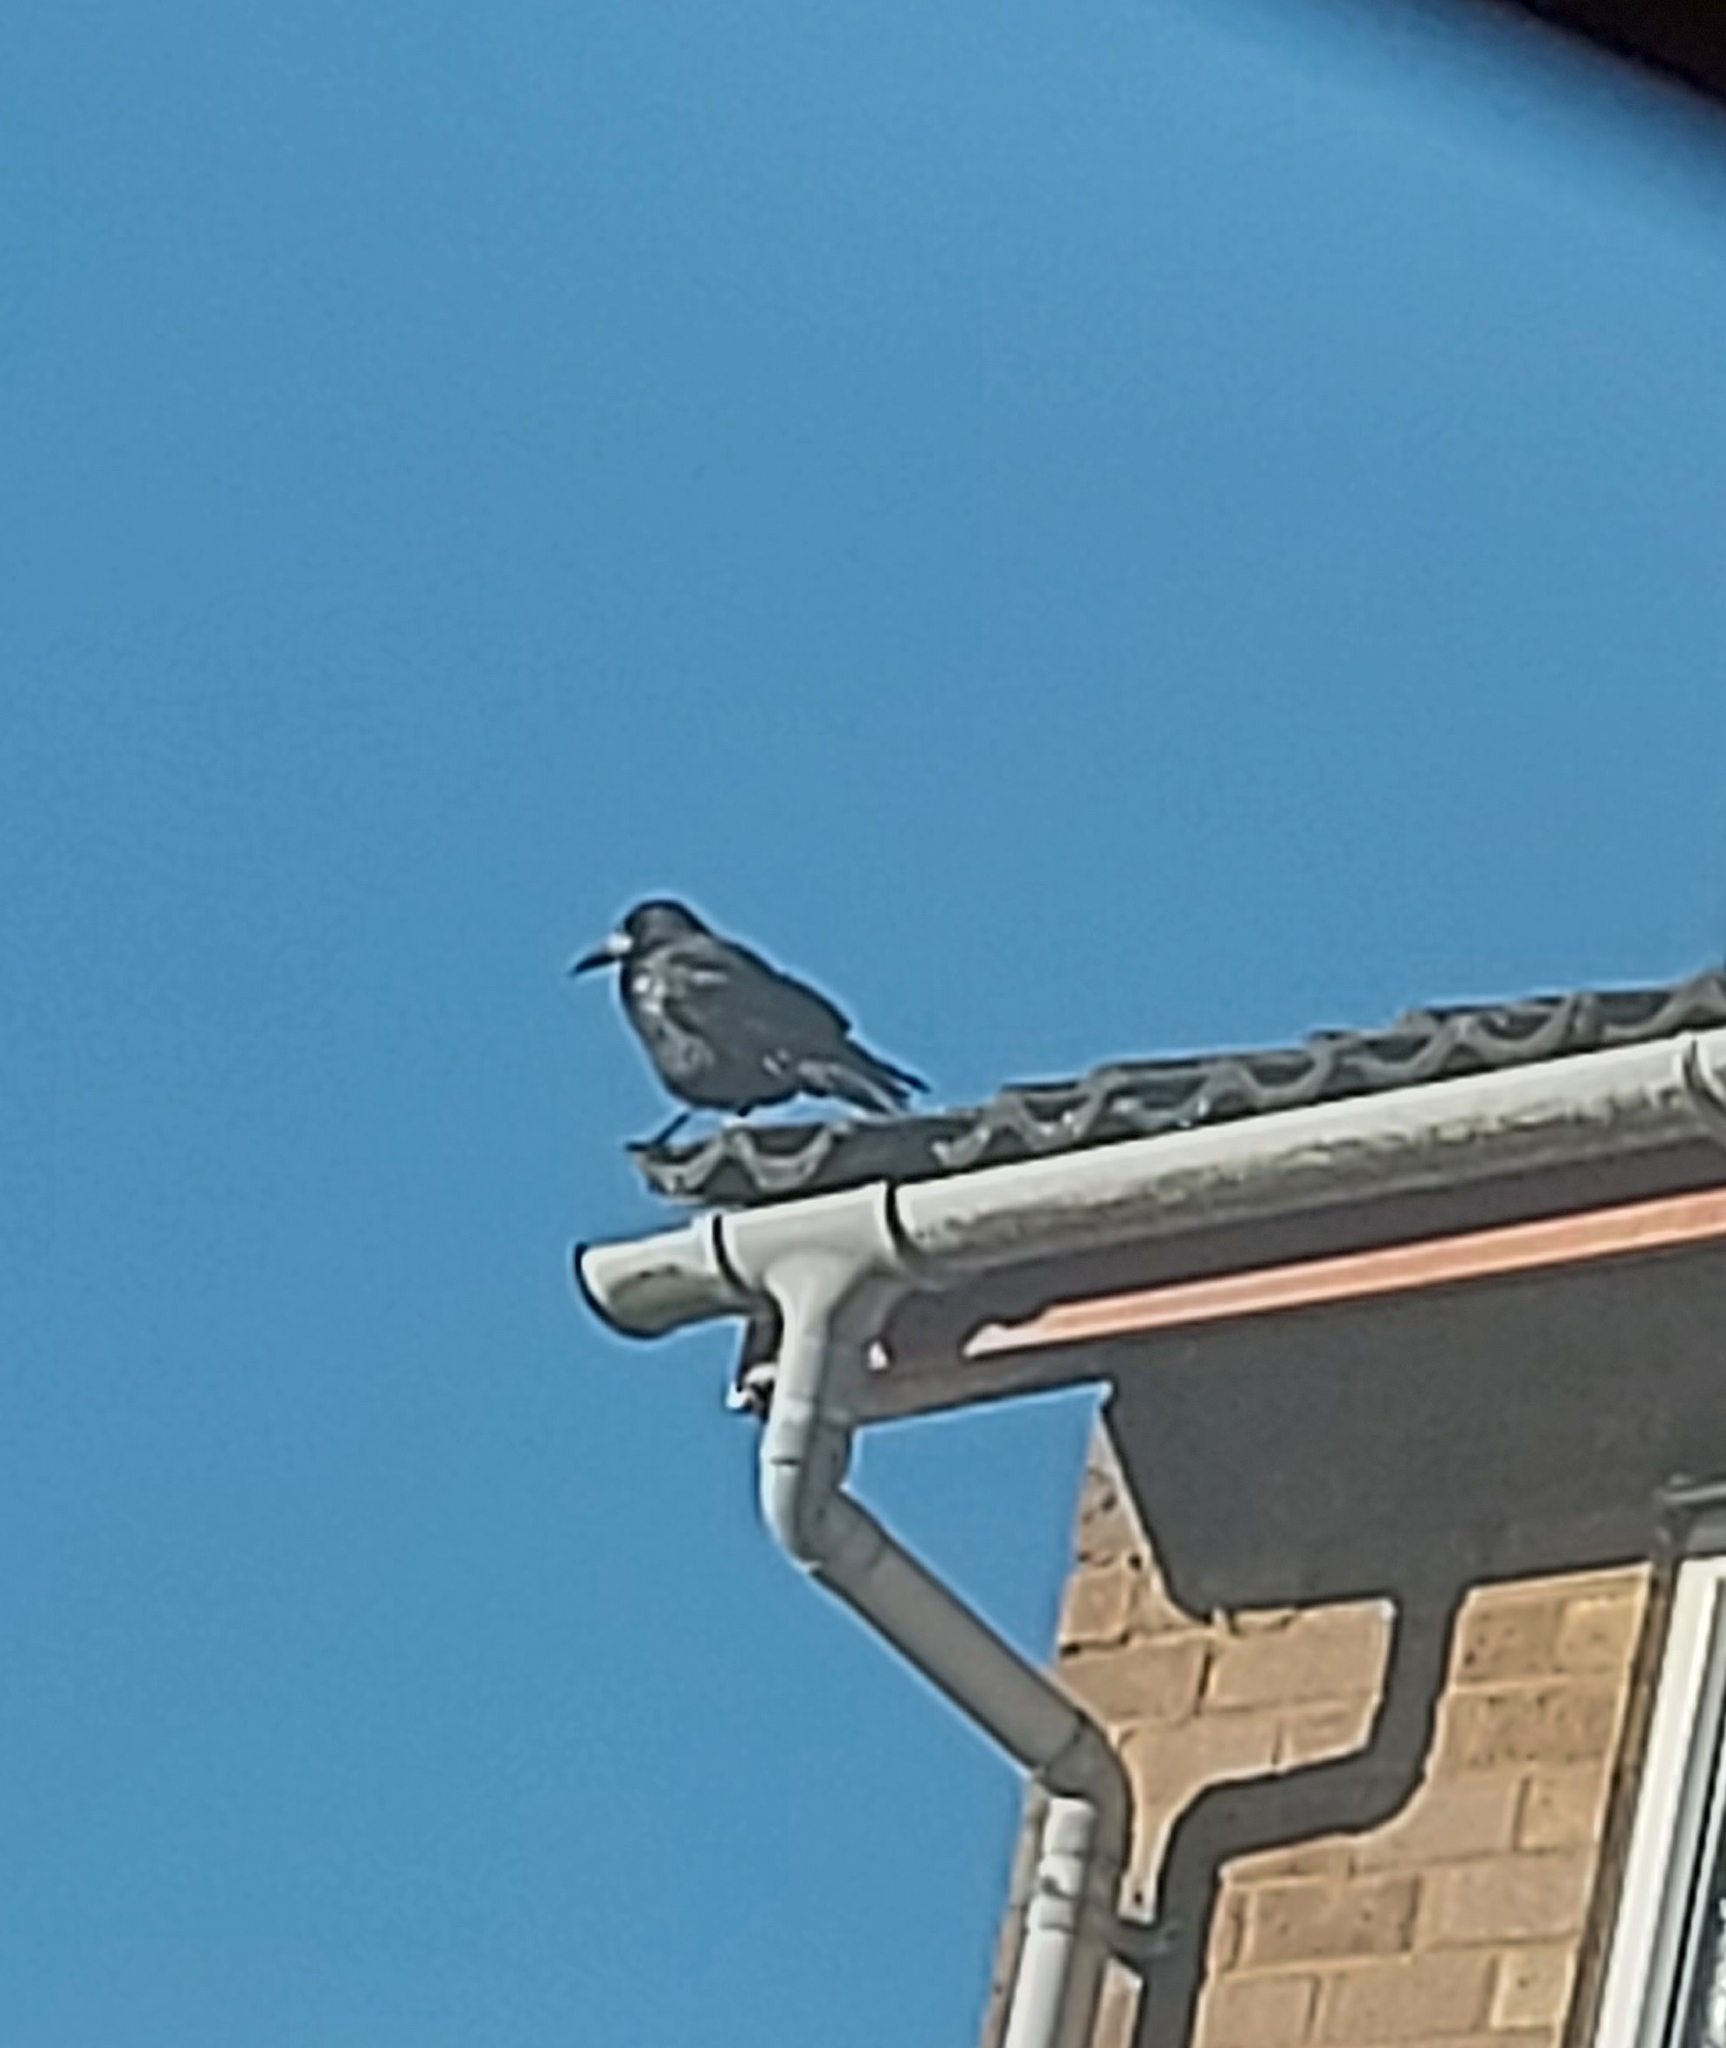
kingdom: Animalia
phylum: Chordata
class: Aves
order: Passeriformes
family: Corvidae
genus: Corvus
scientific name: Corvus frugilegus
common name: Rook
